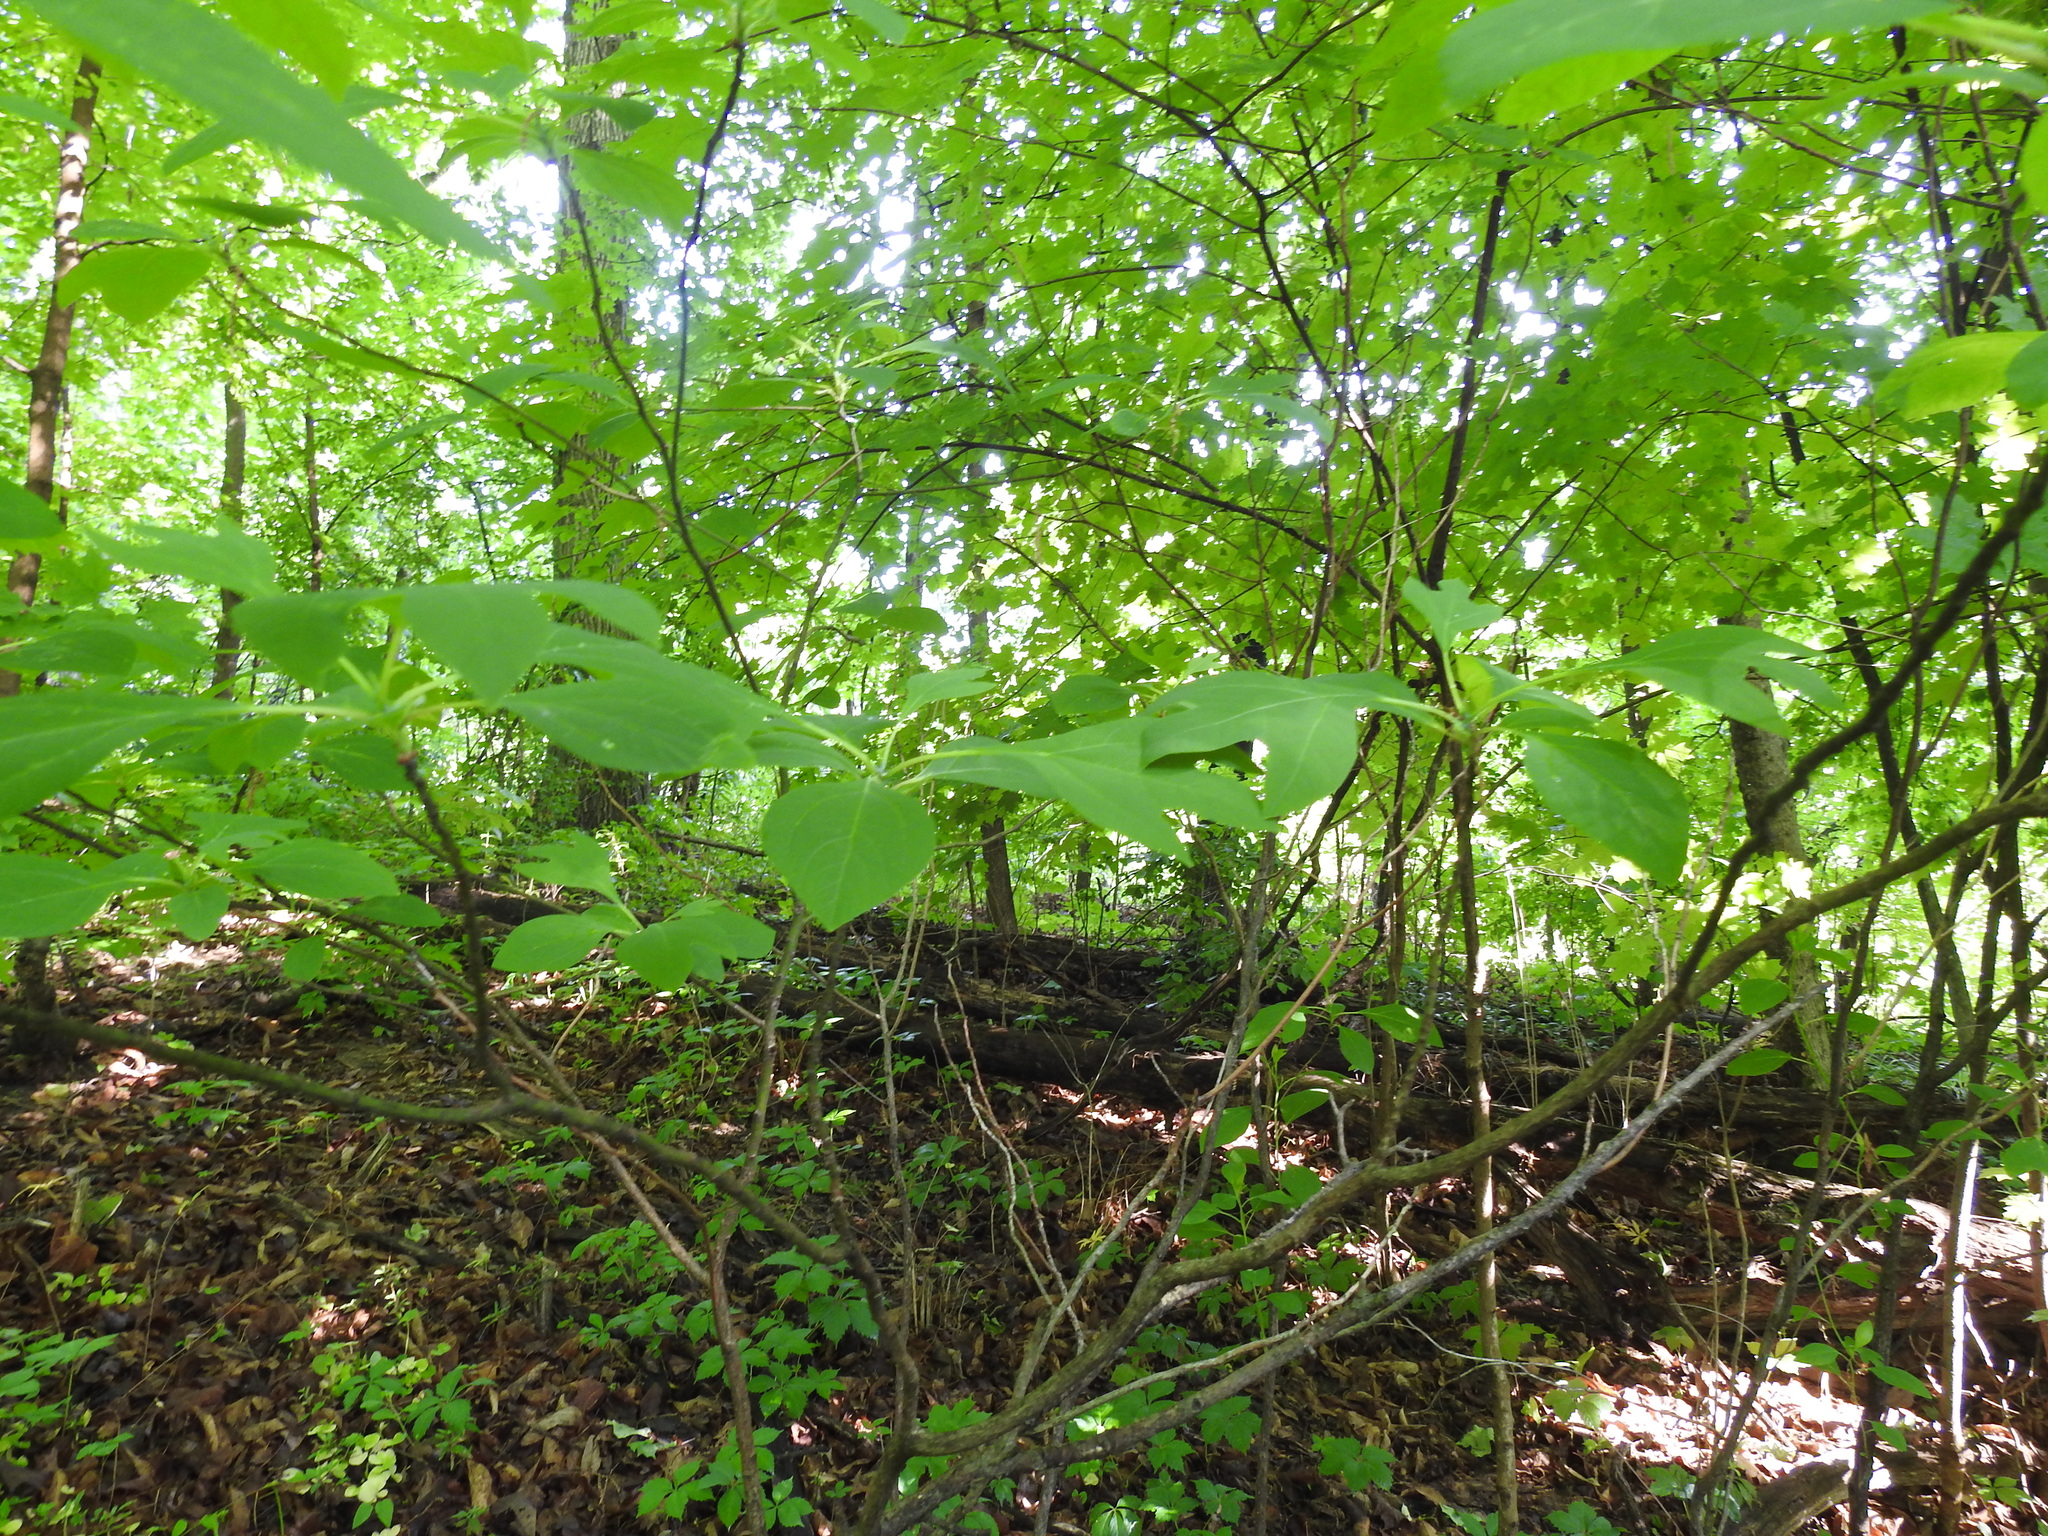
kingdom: Plantae
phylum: Tracheophyta
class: Magnoliopsida
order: Laurales
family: Lauraceae
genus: Sassafras
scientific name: Sassafras albidum
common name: Sassafras
